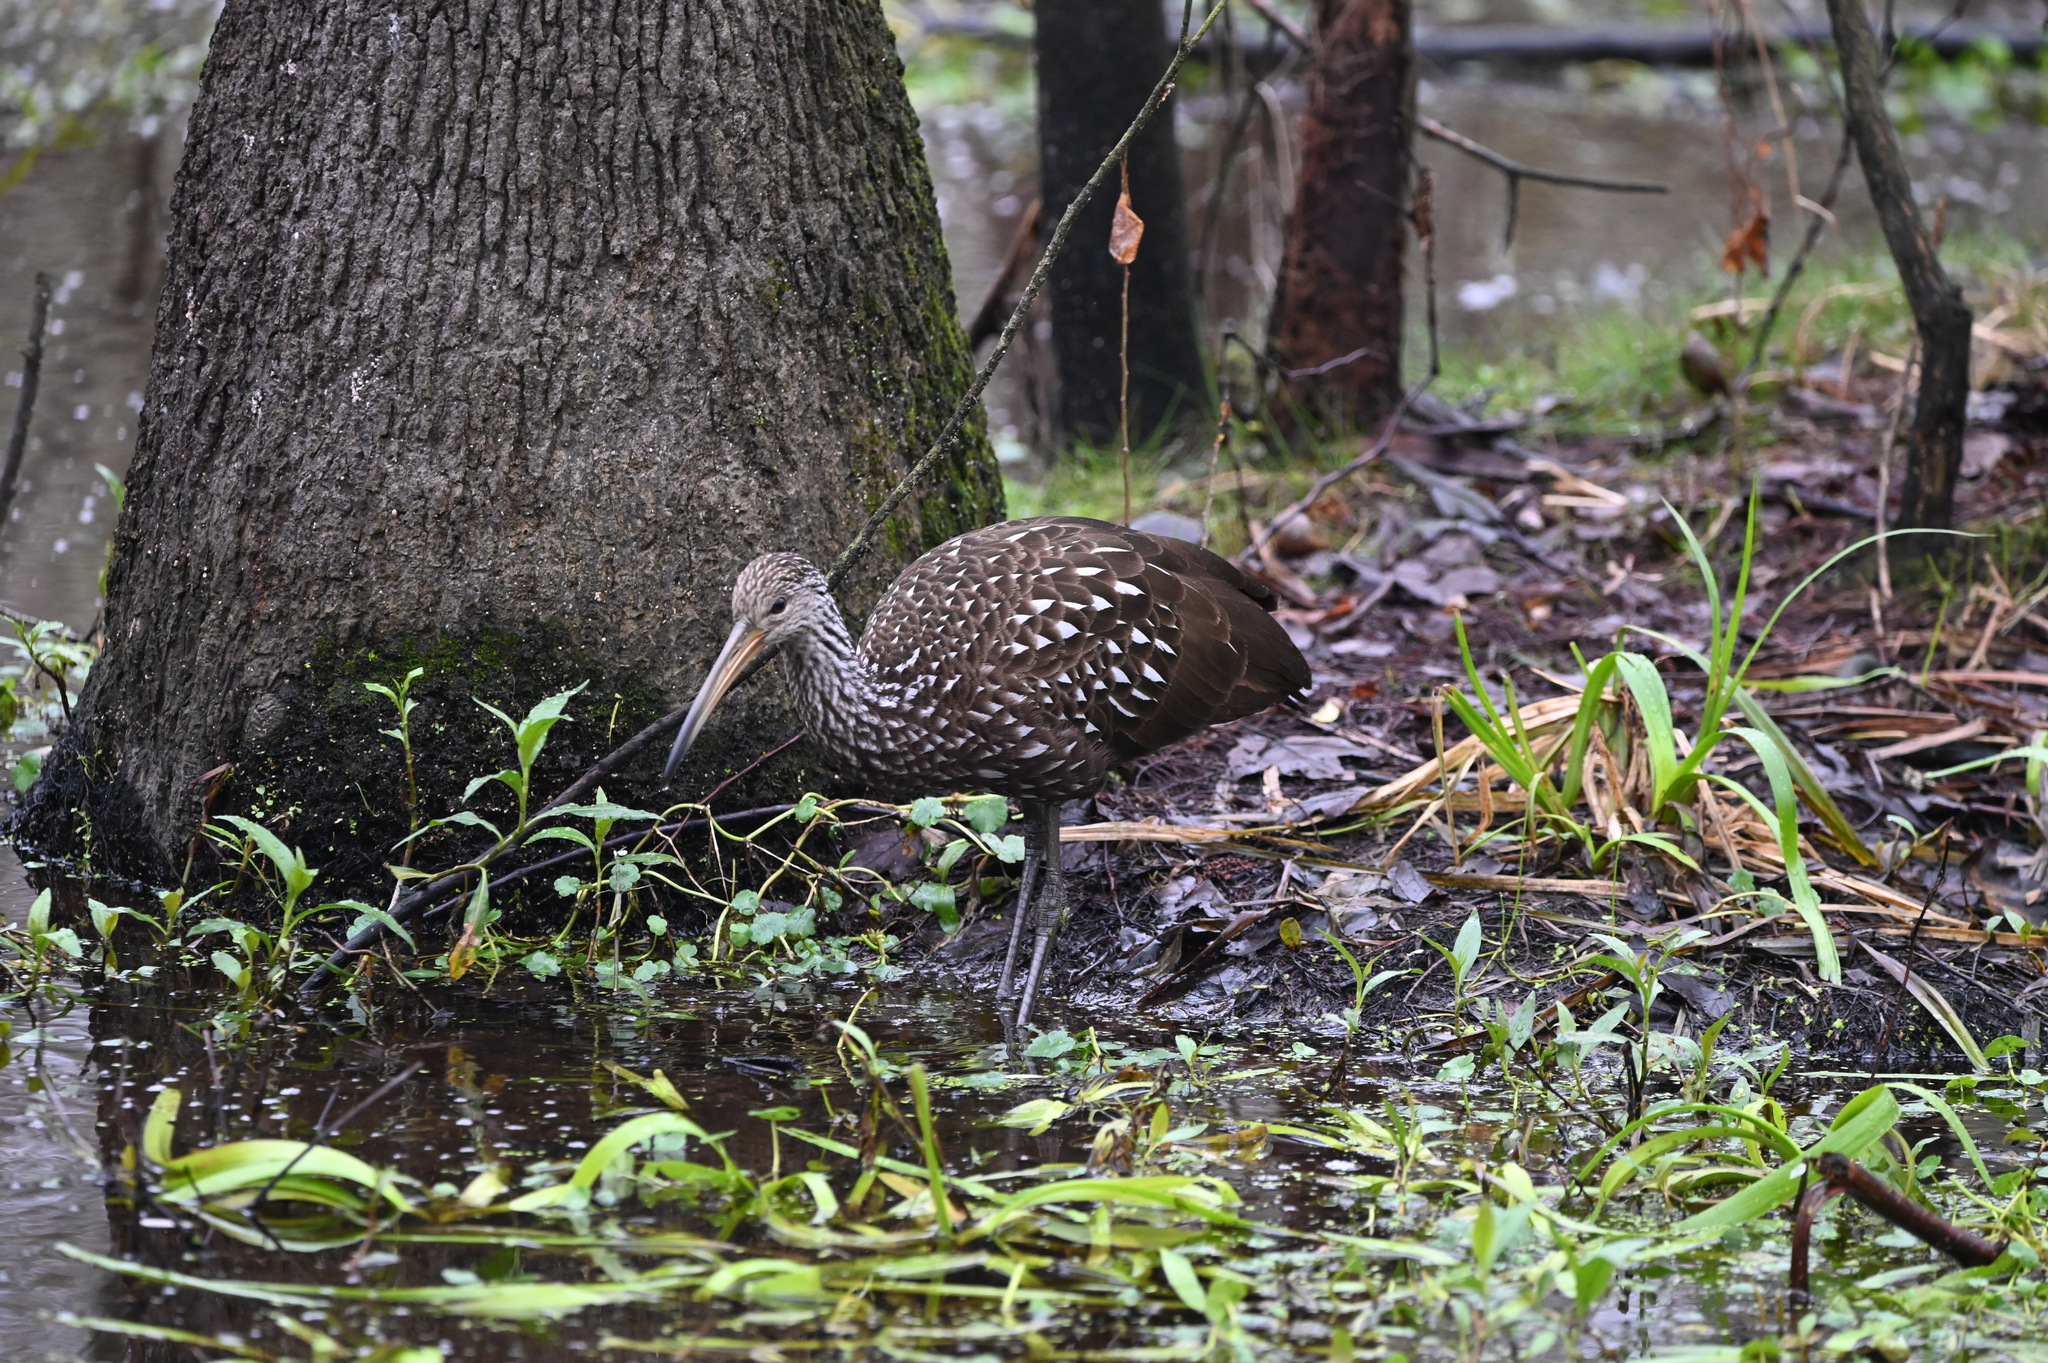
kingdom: Animalia
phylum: Chordata
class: Aves
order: Gruiformes
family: Aramidae
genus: Aramus
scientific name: Aramus guarauna
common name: Limpkin
